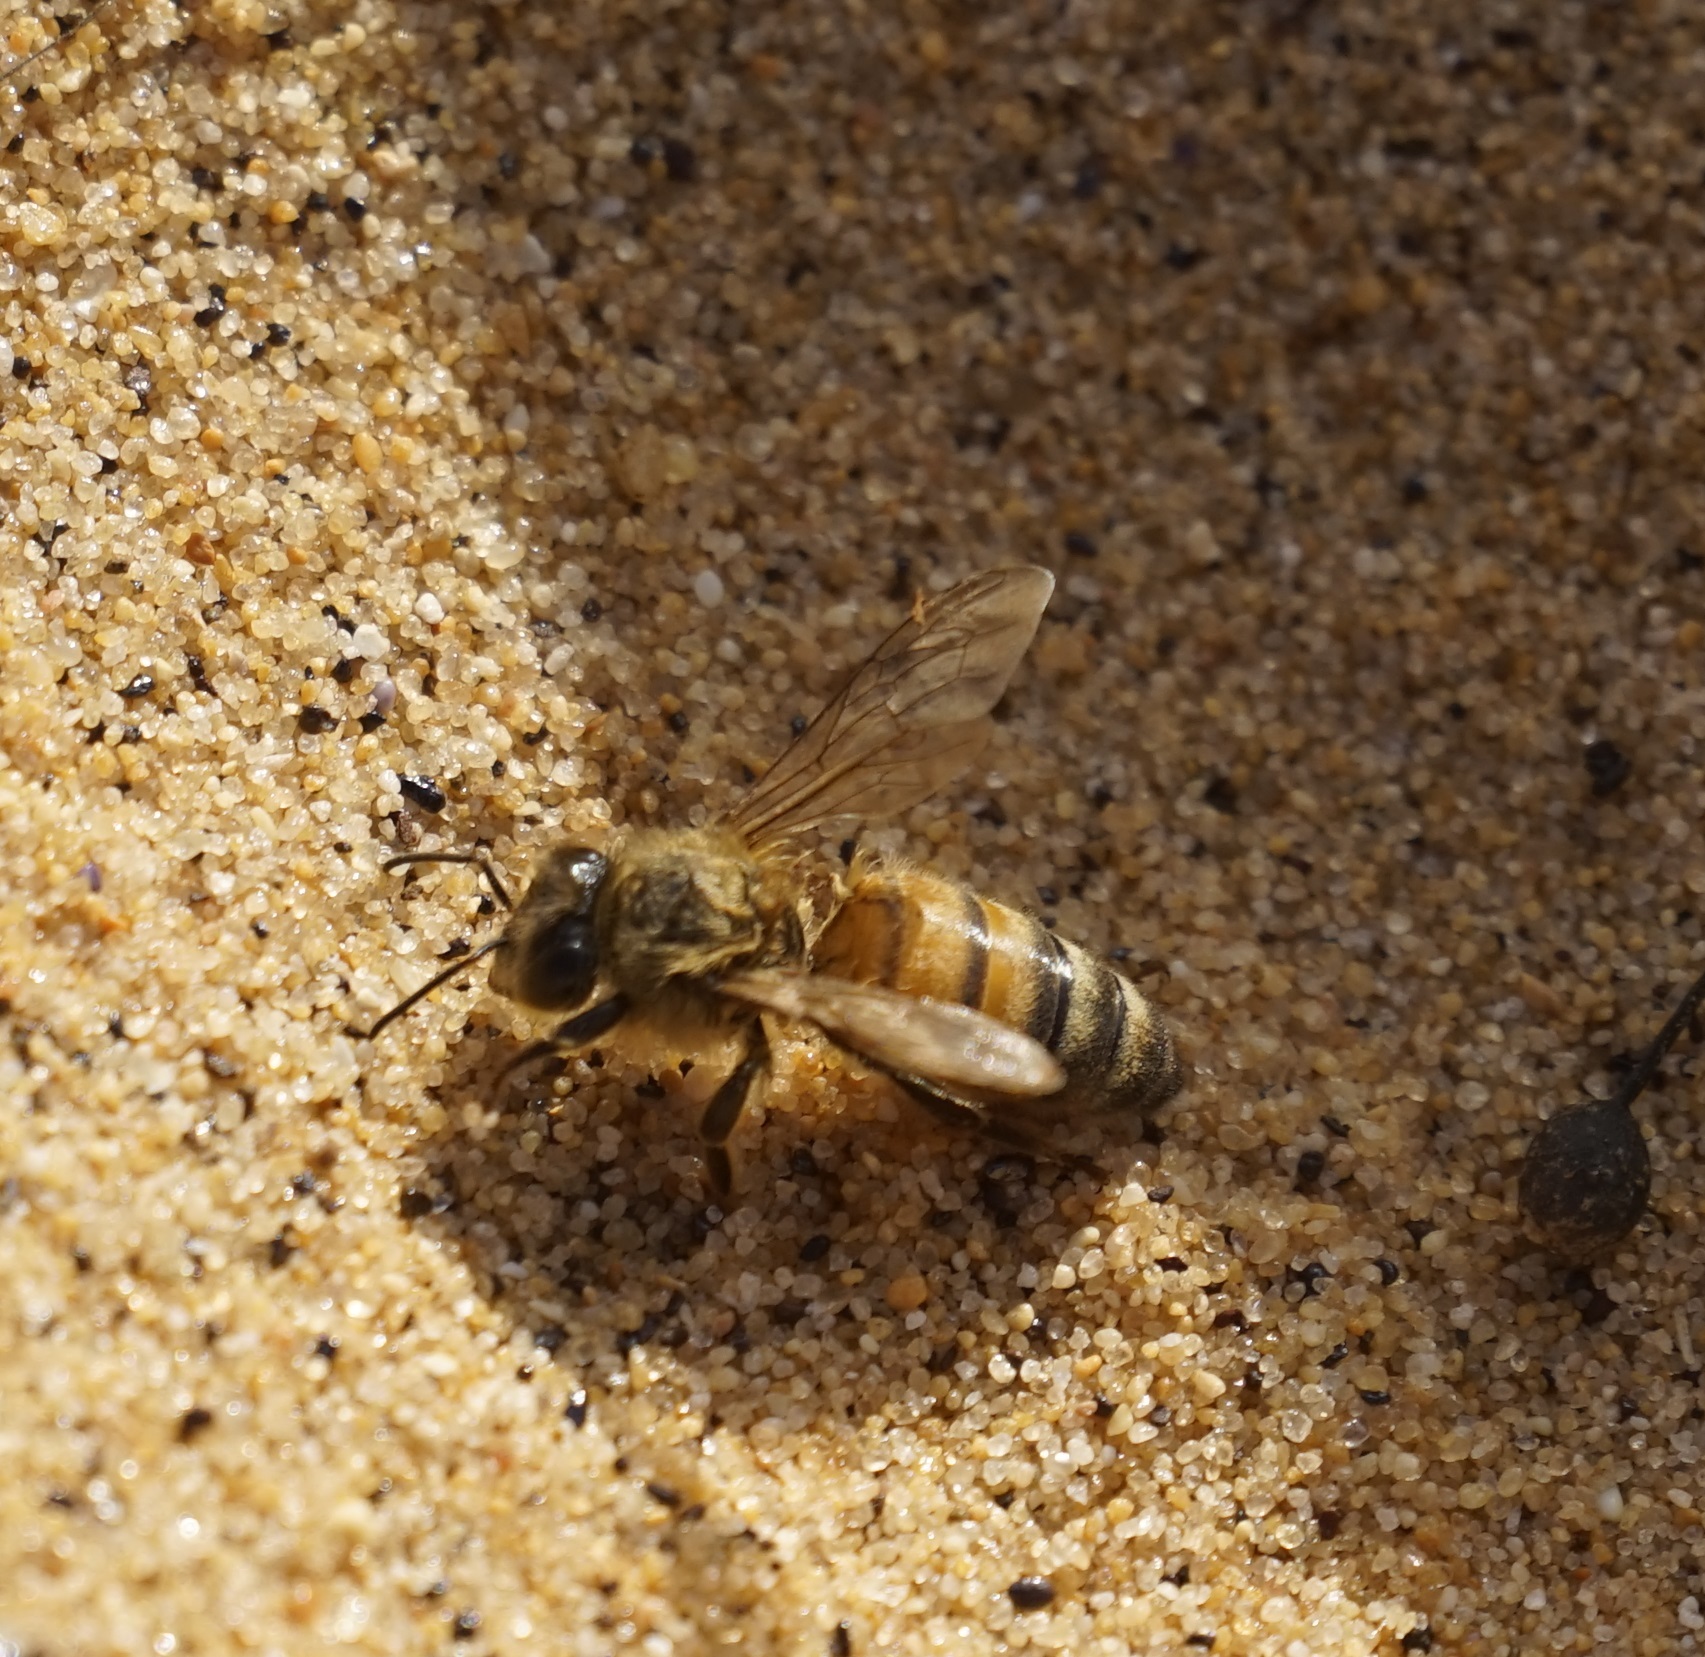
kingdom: Animalia
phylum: Arthropoda
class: Insecta
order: Hymenoptera
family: Apidae
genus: Apis
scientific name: Apis mellifera
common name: Honey bee
